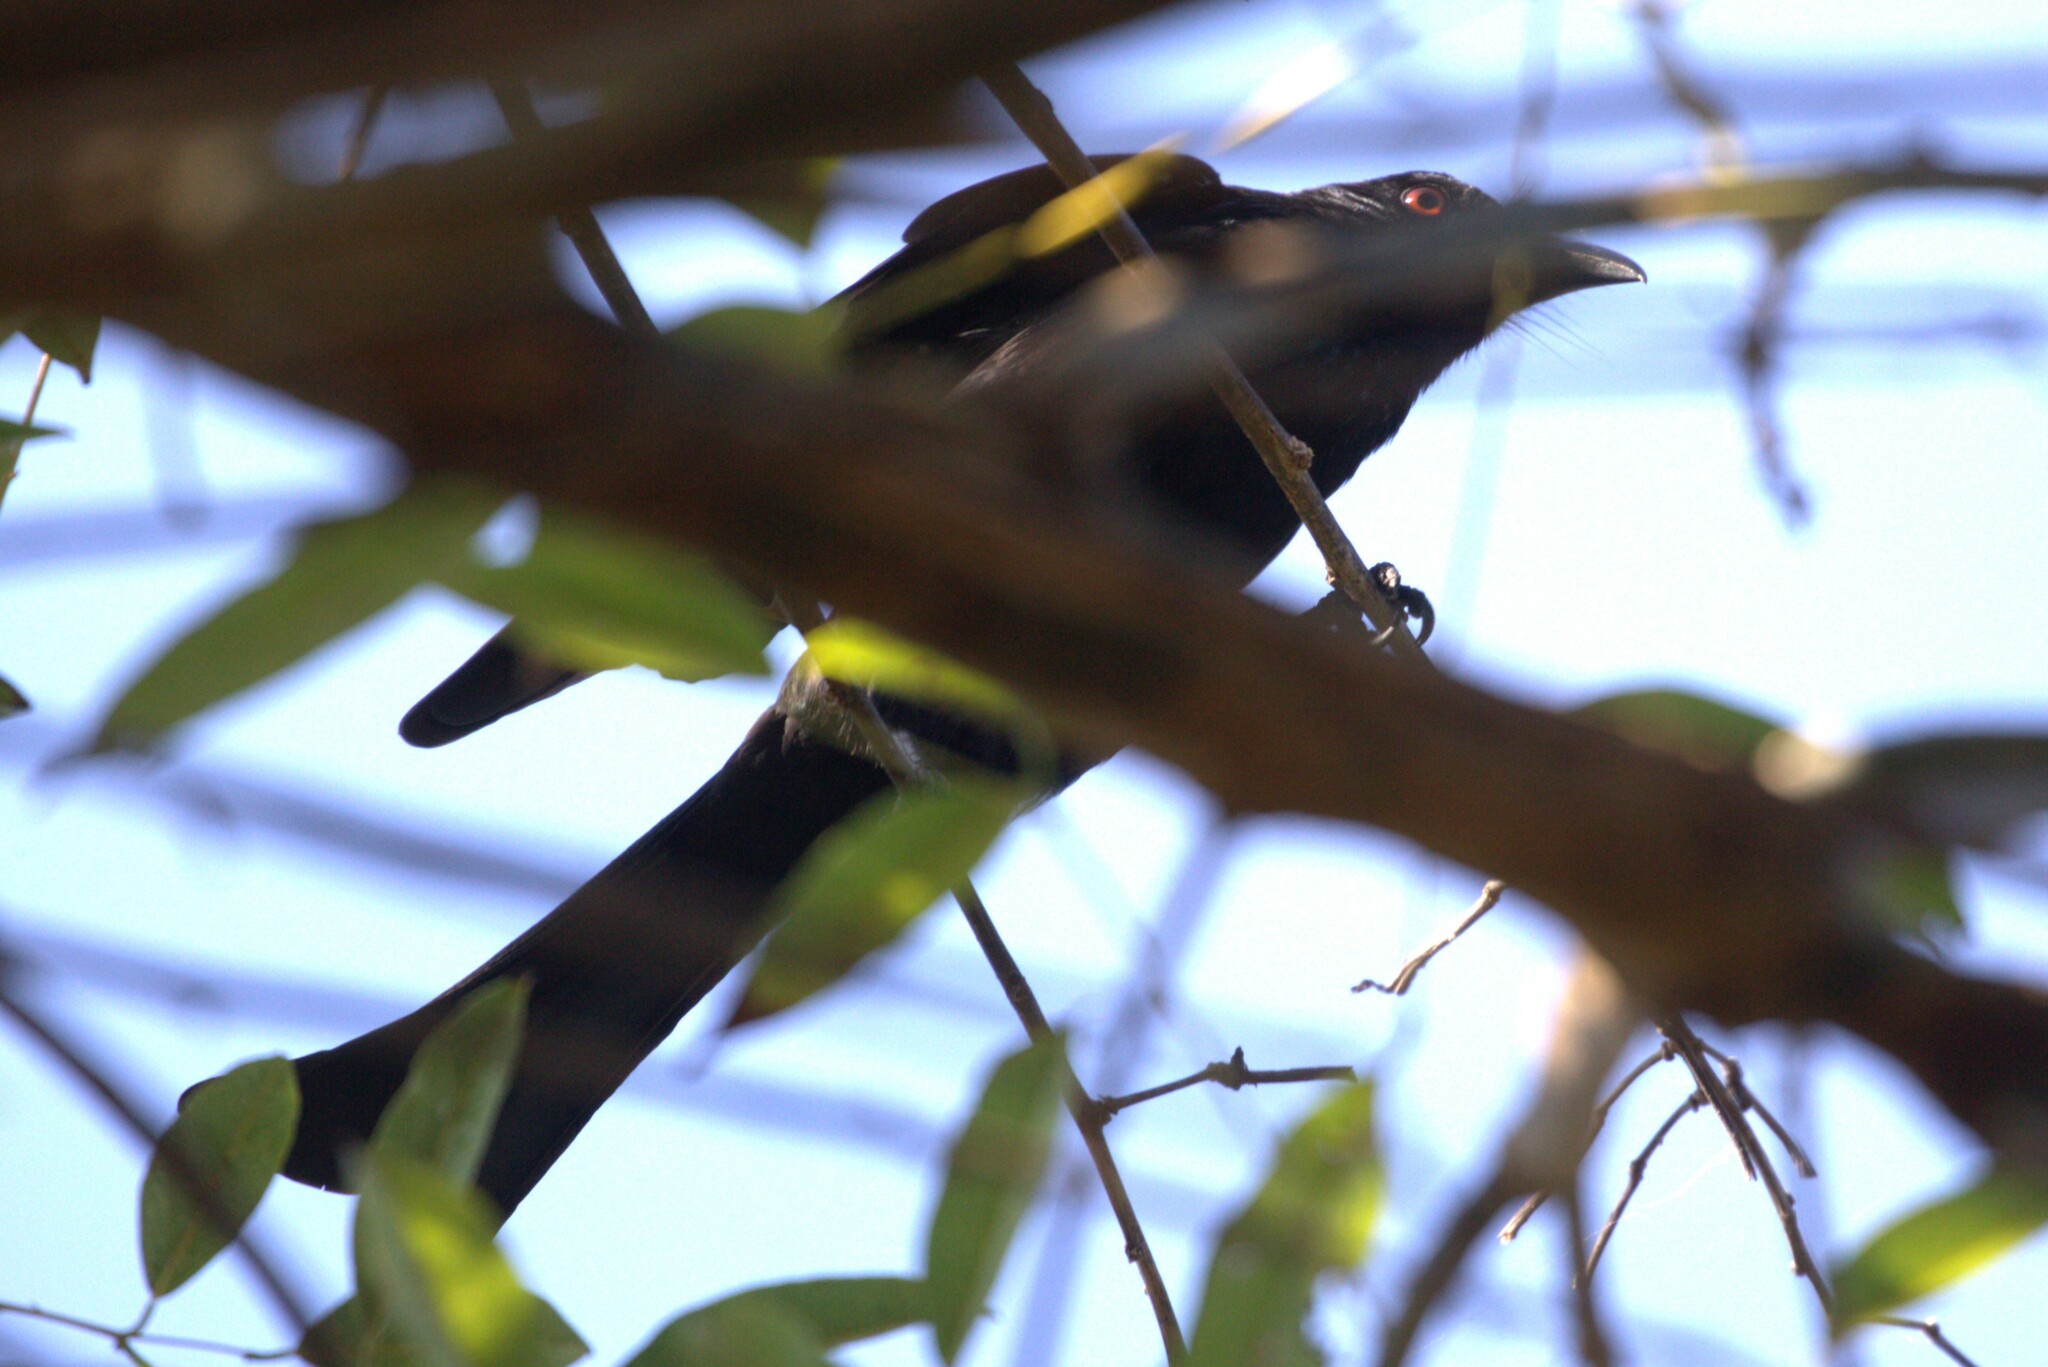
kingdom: Animalia
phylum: Chordata
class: Aves
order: Passeriformes
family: Dicruridae
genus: Dicrurus
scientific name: Dicrurus bracteatus
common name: Spangled drongo
